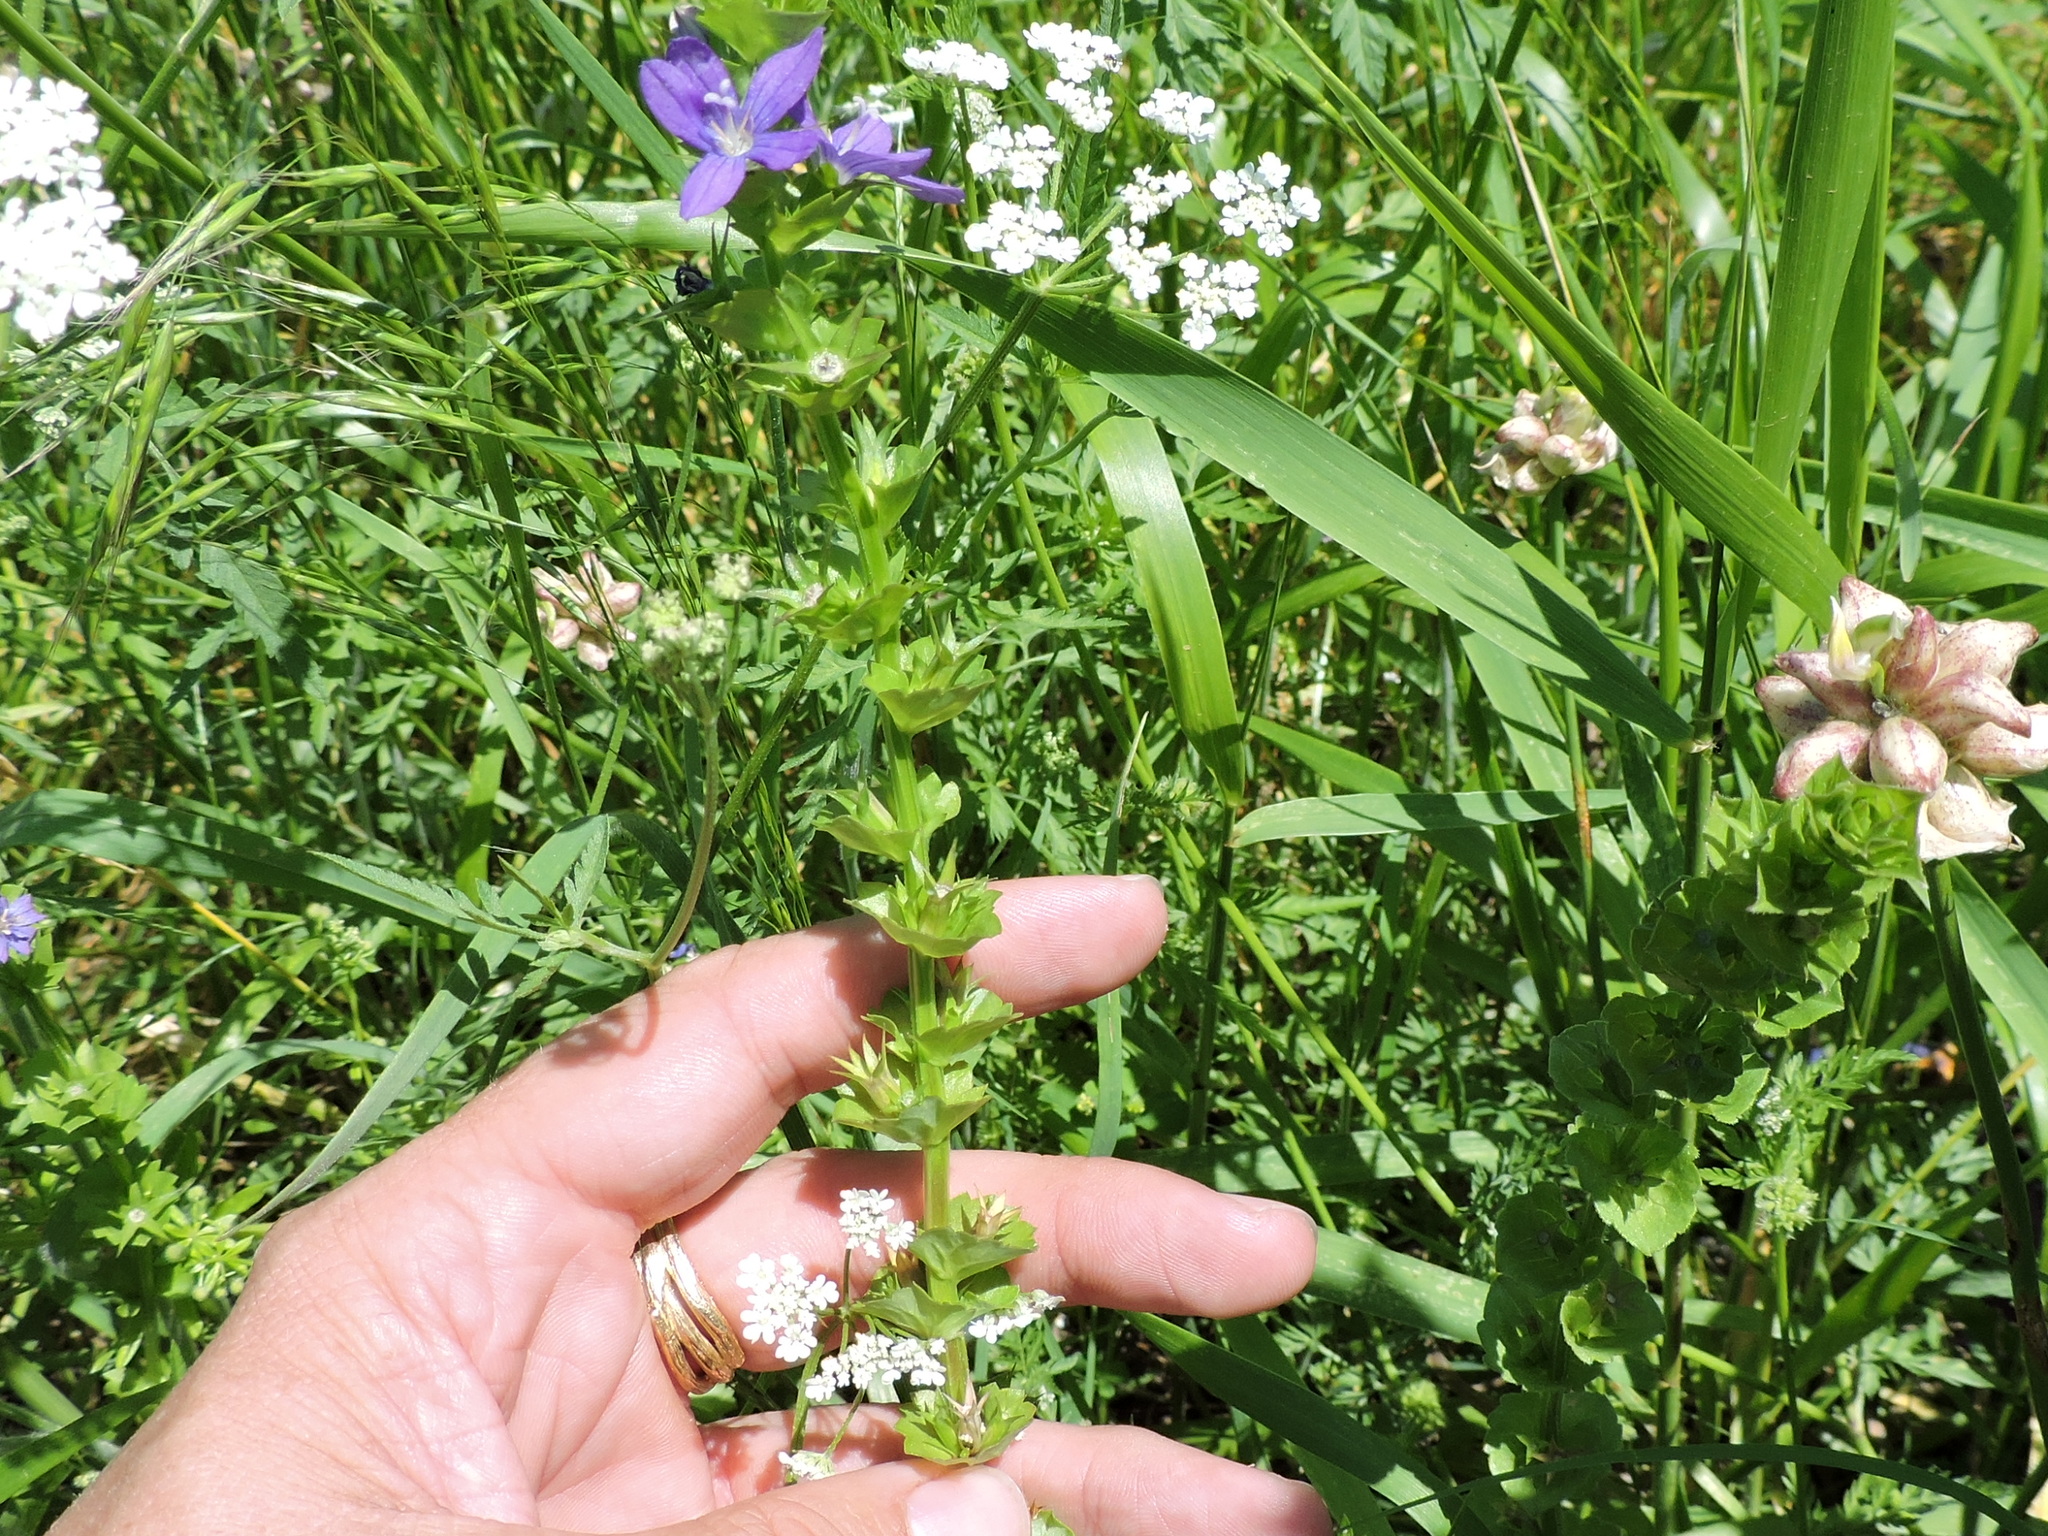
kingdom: Plantae
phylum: Tracheophyta
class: Magnoliopsida
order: Asterales
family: Campanulaceae
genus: Triodanis
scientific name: Triodanis perfoliata
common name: Clasping venus' looking-glass
